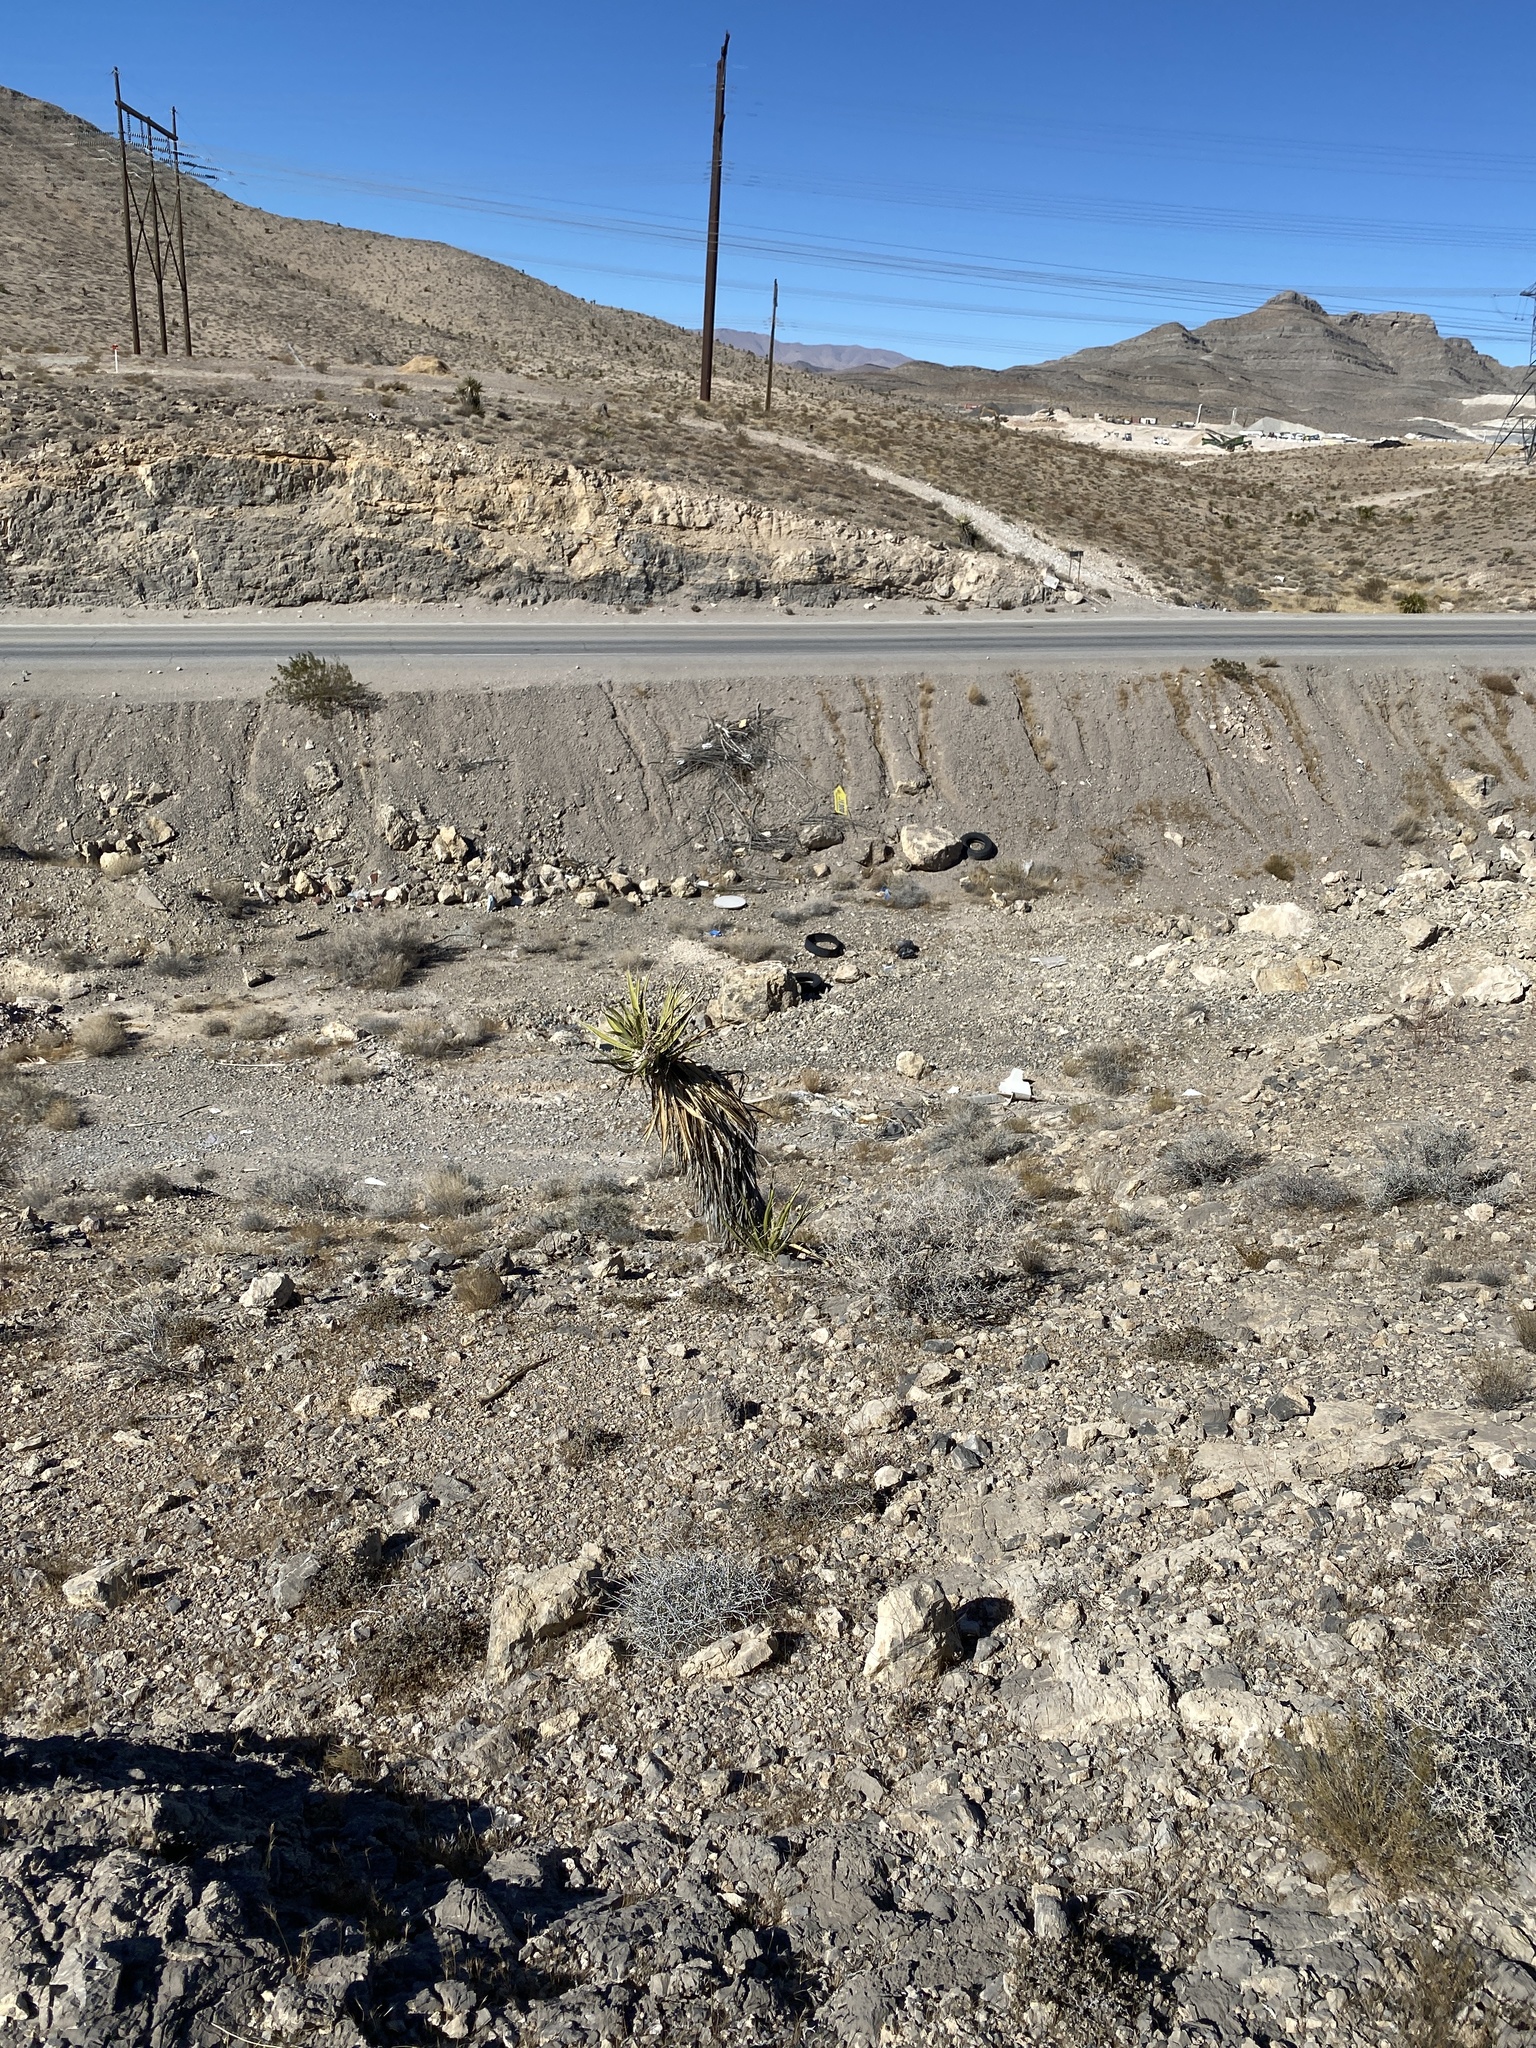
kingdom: Plantae
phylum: Tracheophyta
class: Liliopsida
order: Asparagales
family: Asparagaceae
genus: Yucca
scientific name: Yucca schidigera
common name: Mojave yucca
